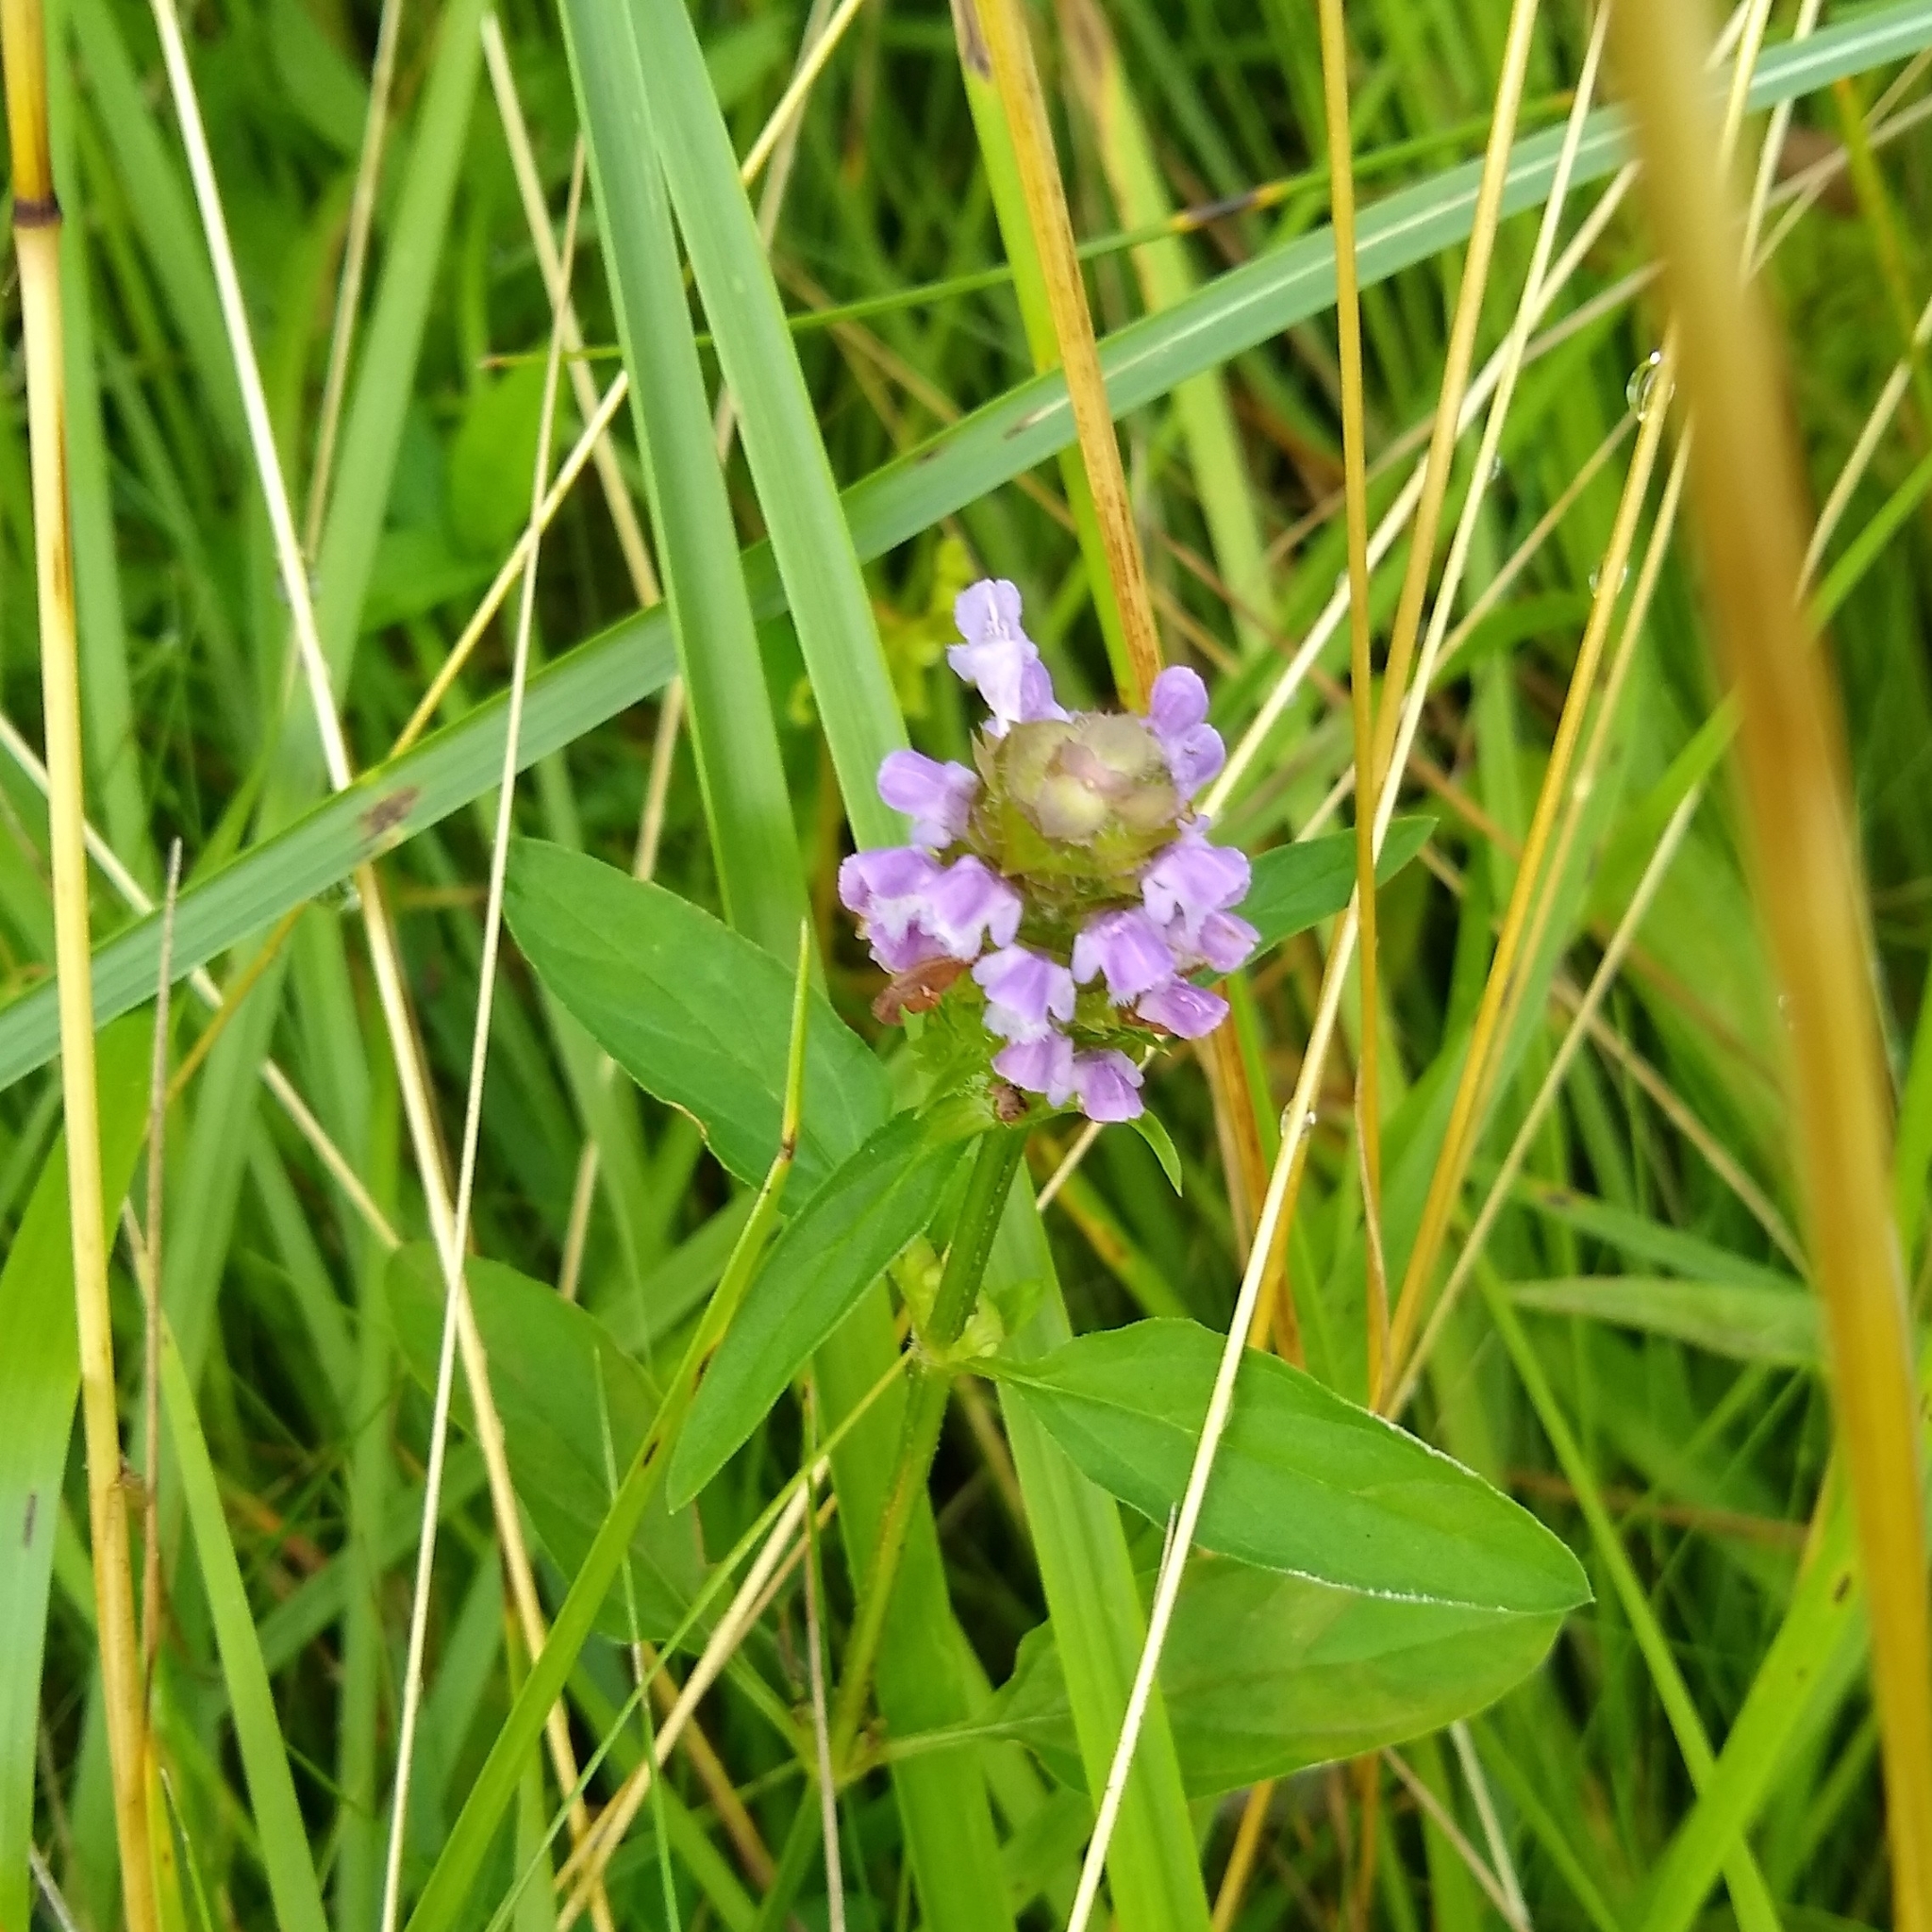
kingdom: Plantae
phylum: Tracheophyta
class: Magnoliopsida
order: Lamiales
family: Lamiaceae
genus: Prunella
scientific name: Prunella vulgaris
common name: Heal-all
